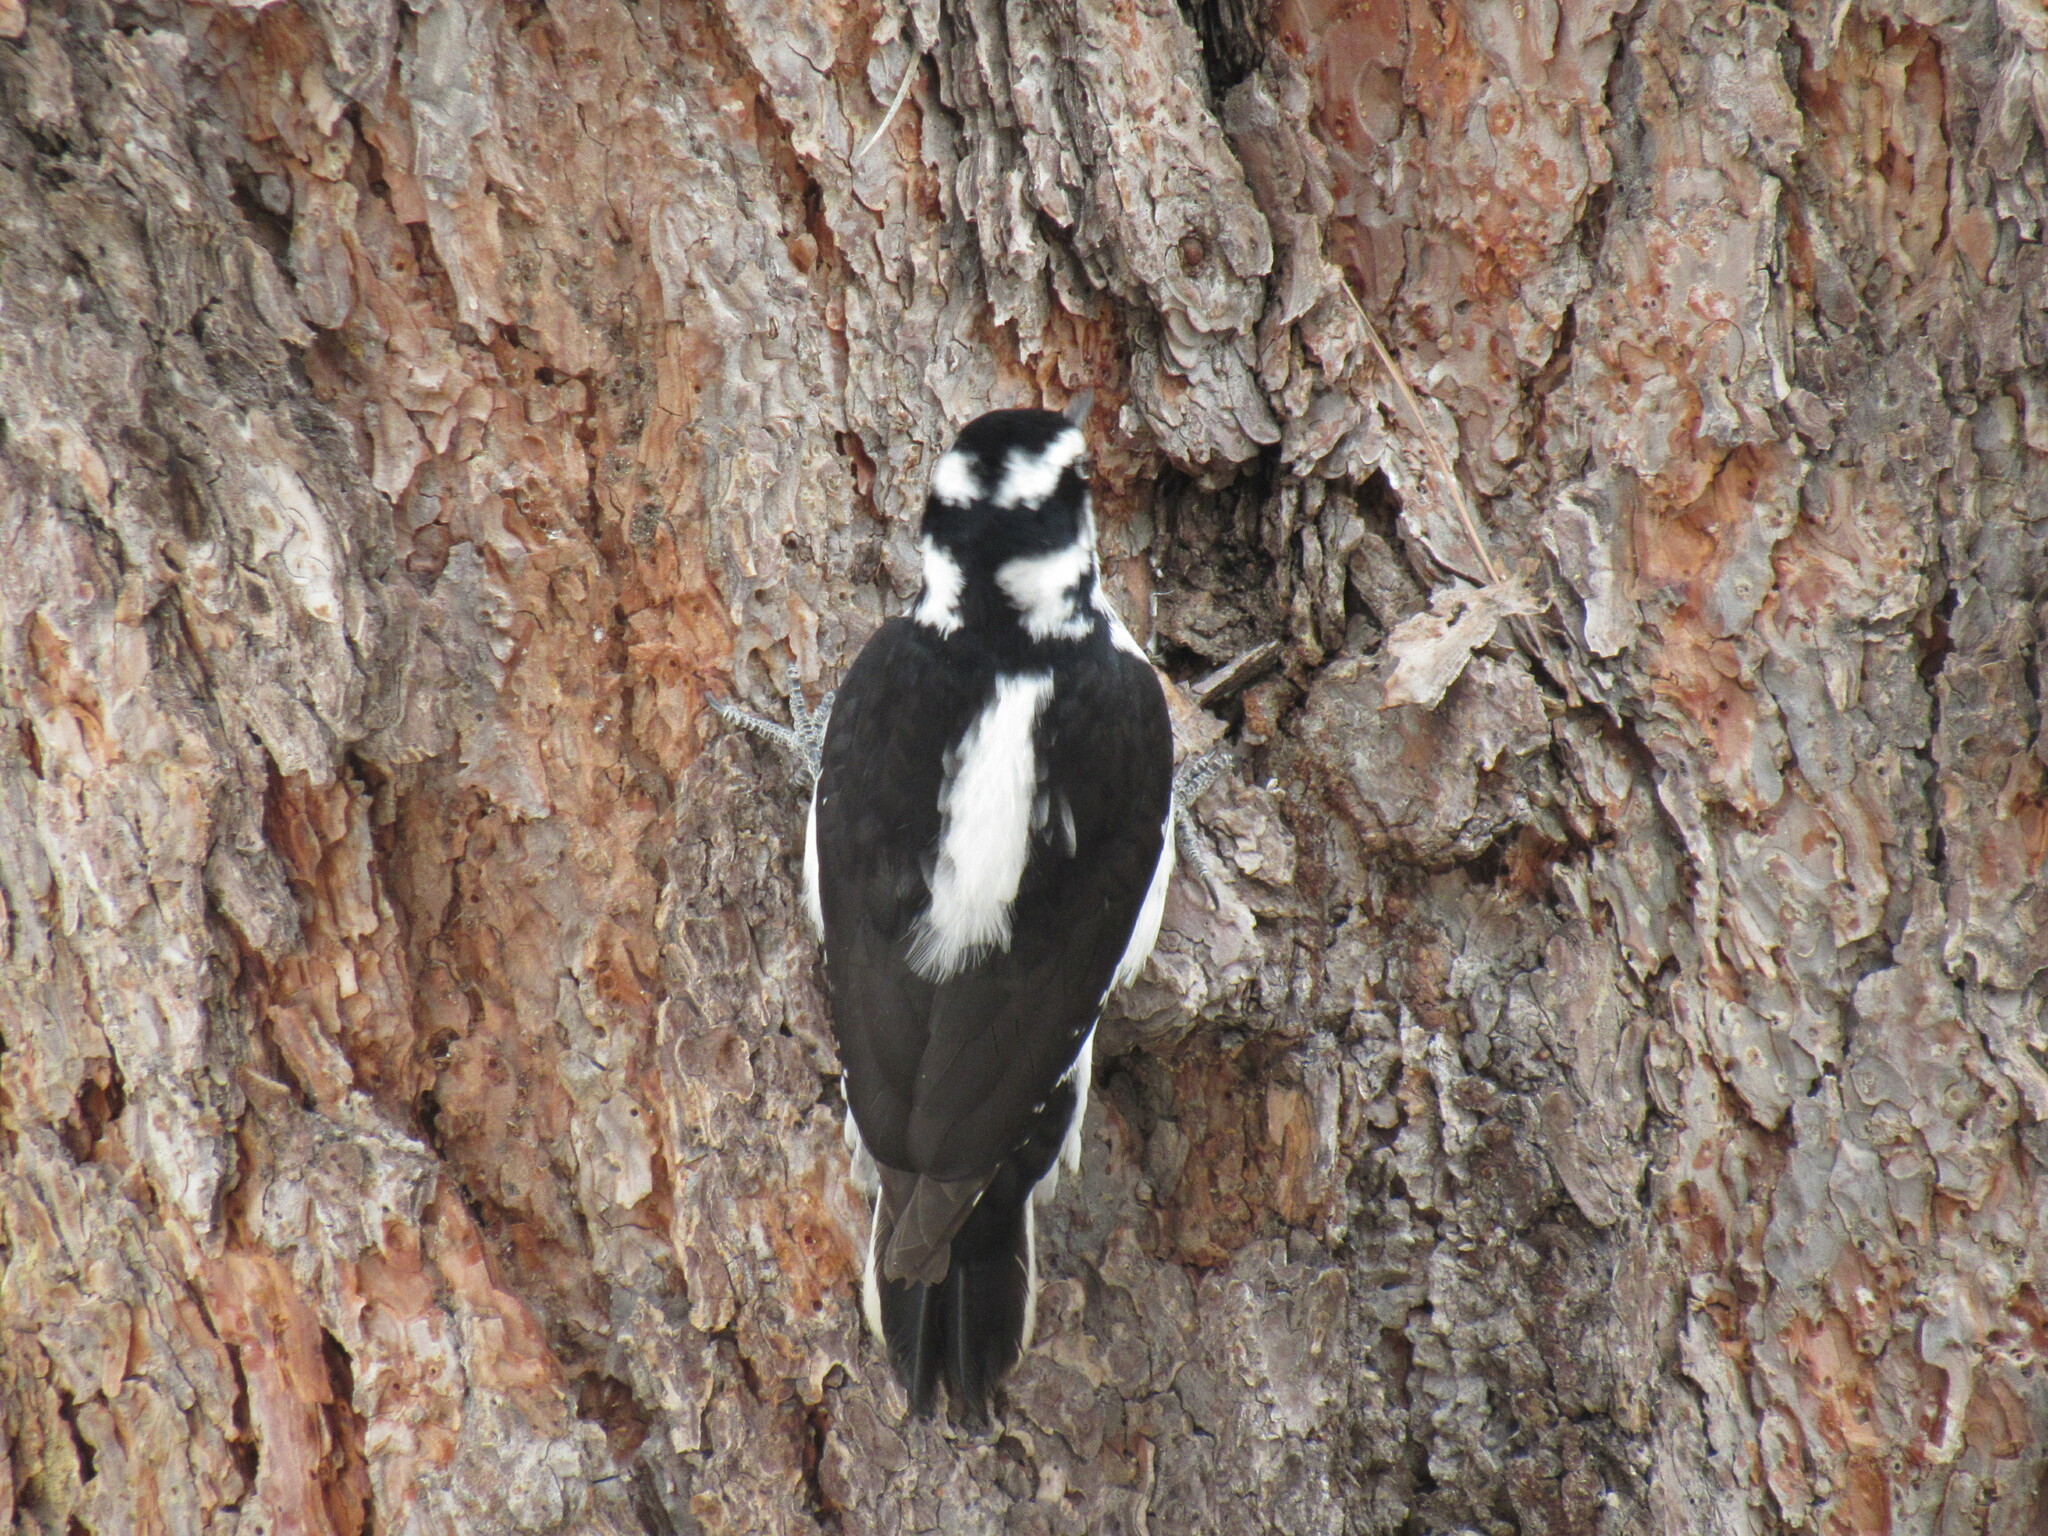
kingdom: Animalia
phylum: Chordata
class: Aves
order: Piciformes
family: Picidae
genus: Leuconotopicus
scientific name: Leuconotopicus villosus
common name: Hairy woodpecker
